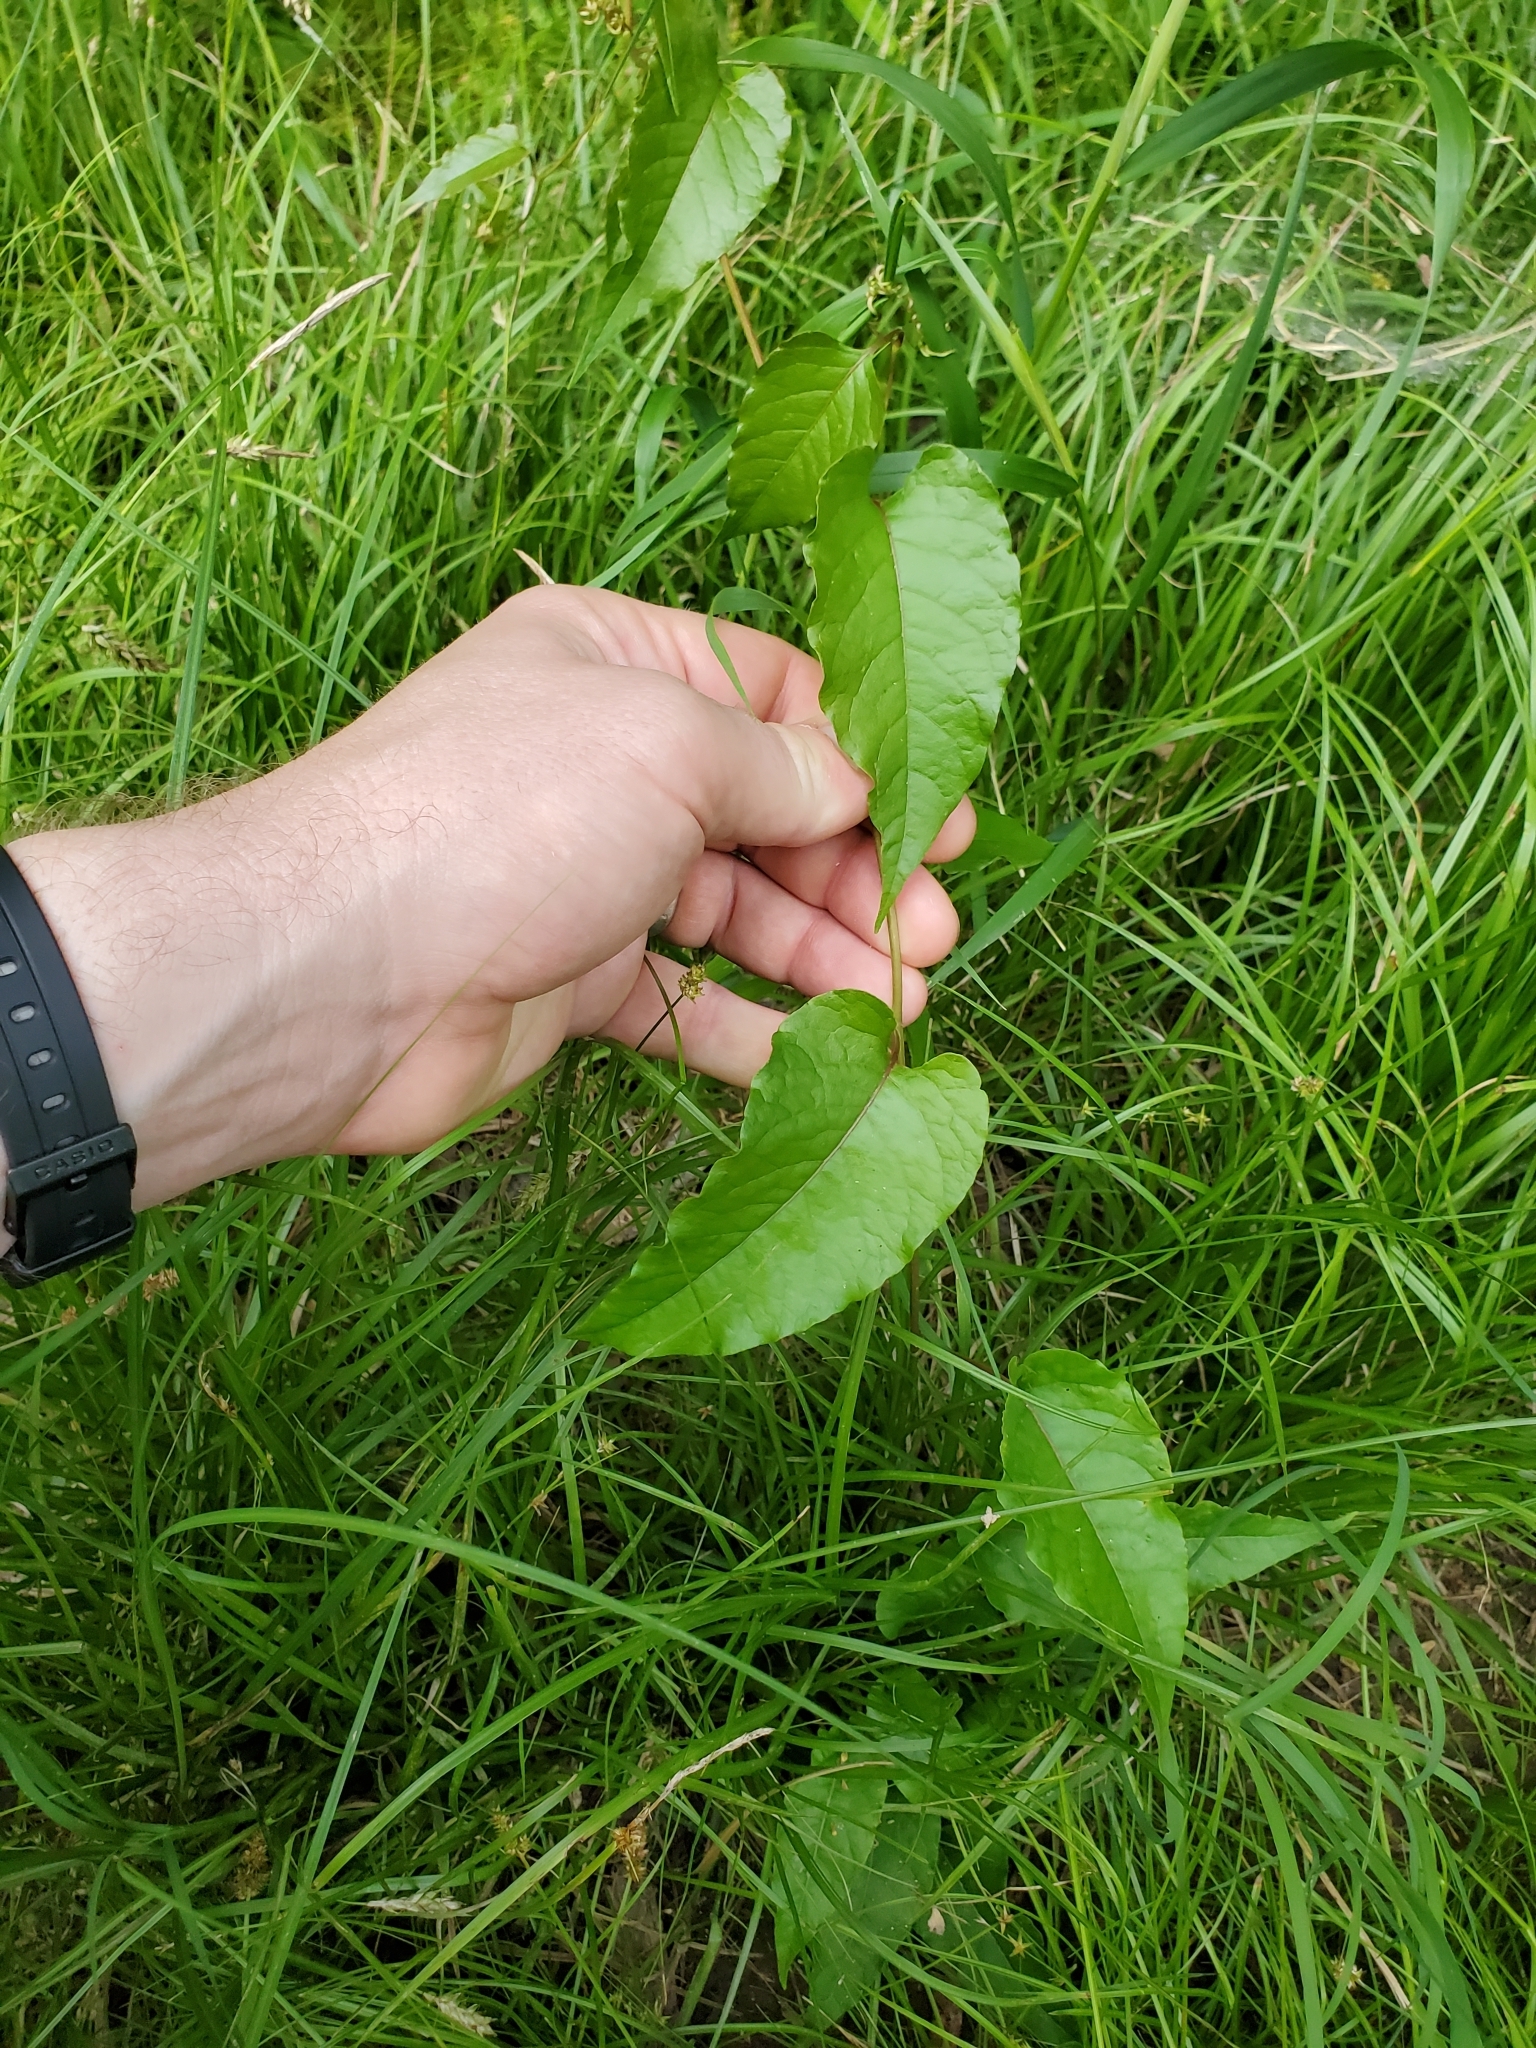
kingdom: Plantae
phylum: Tracheophyta
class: Magnoliopsida
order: Caryophyllales
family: Polygonaceae
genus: Brunnichia
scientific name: Brunnichia ovata
